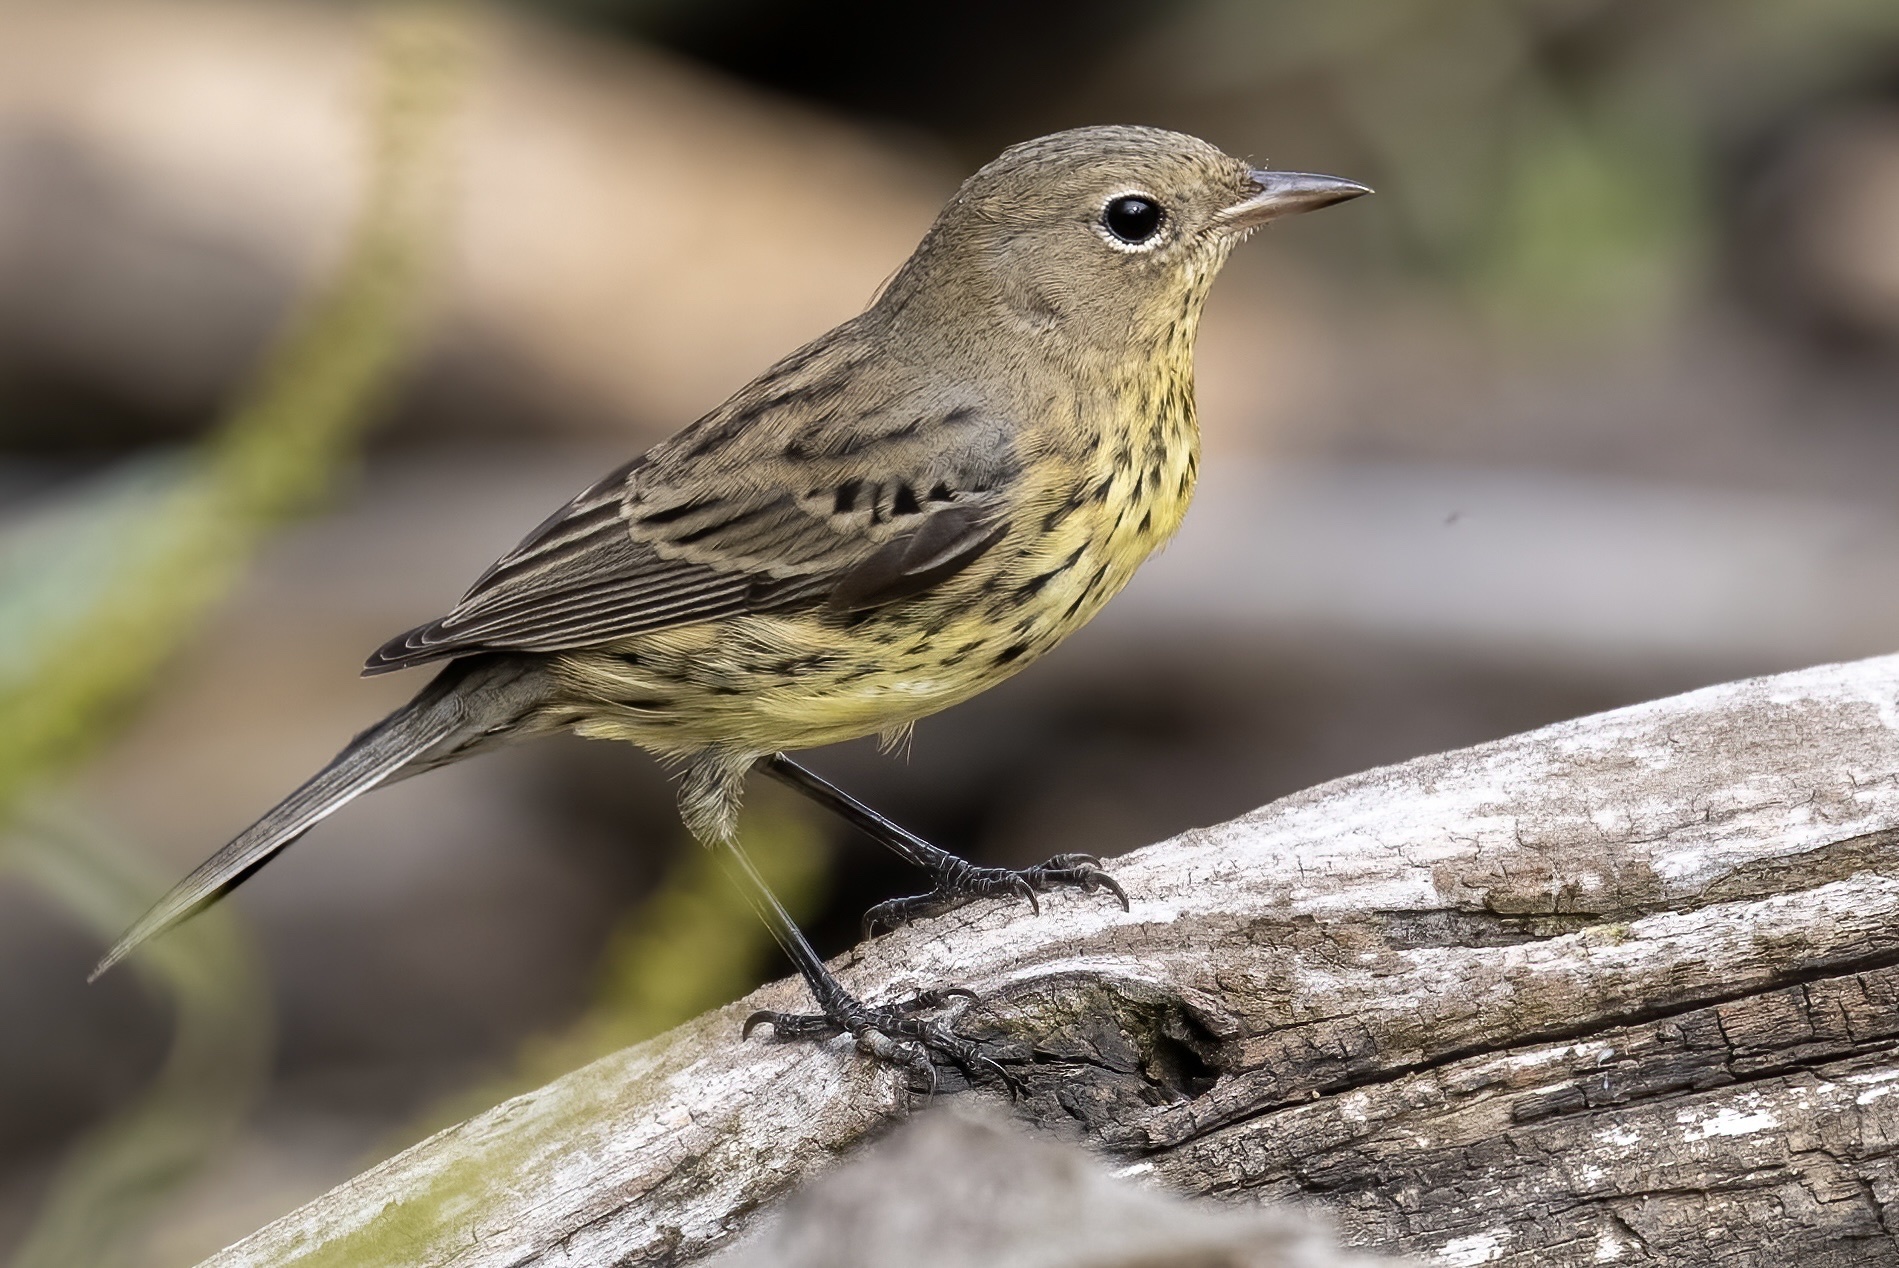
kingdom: Animalia
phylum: Chordata
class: Aves
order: Passeriformes
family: Parulidae
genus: Setophaga
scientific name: Setophaga kirtlandii
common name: Kirtland's warbler
